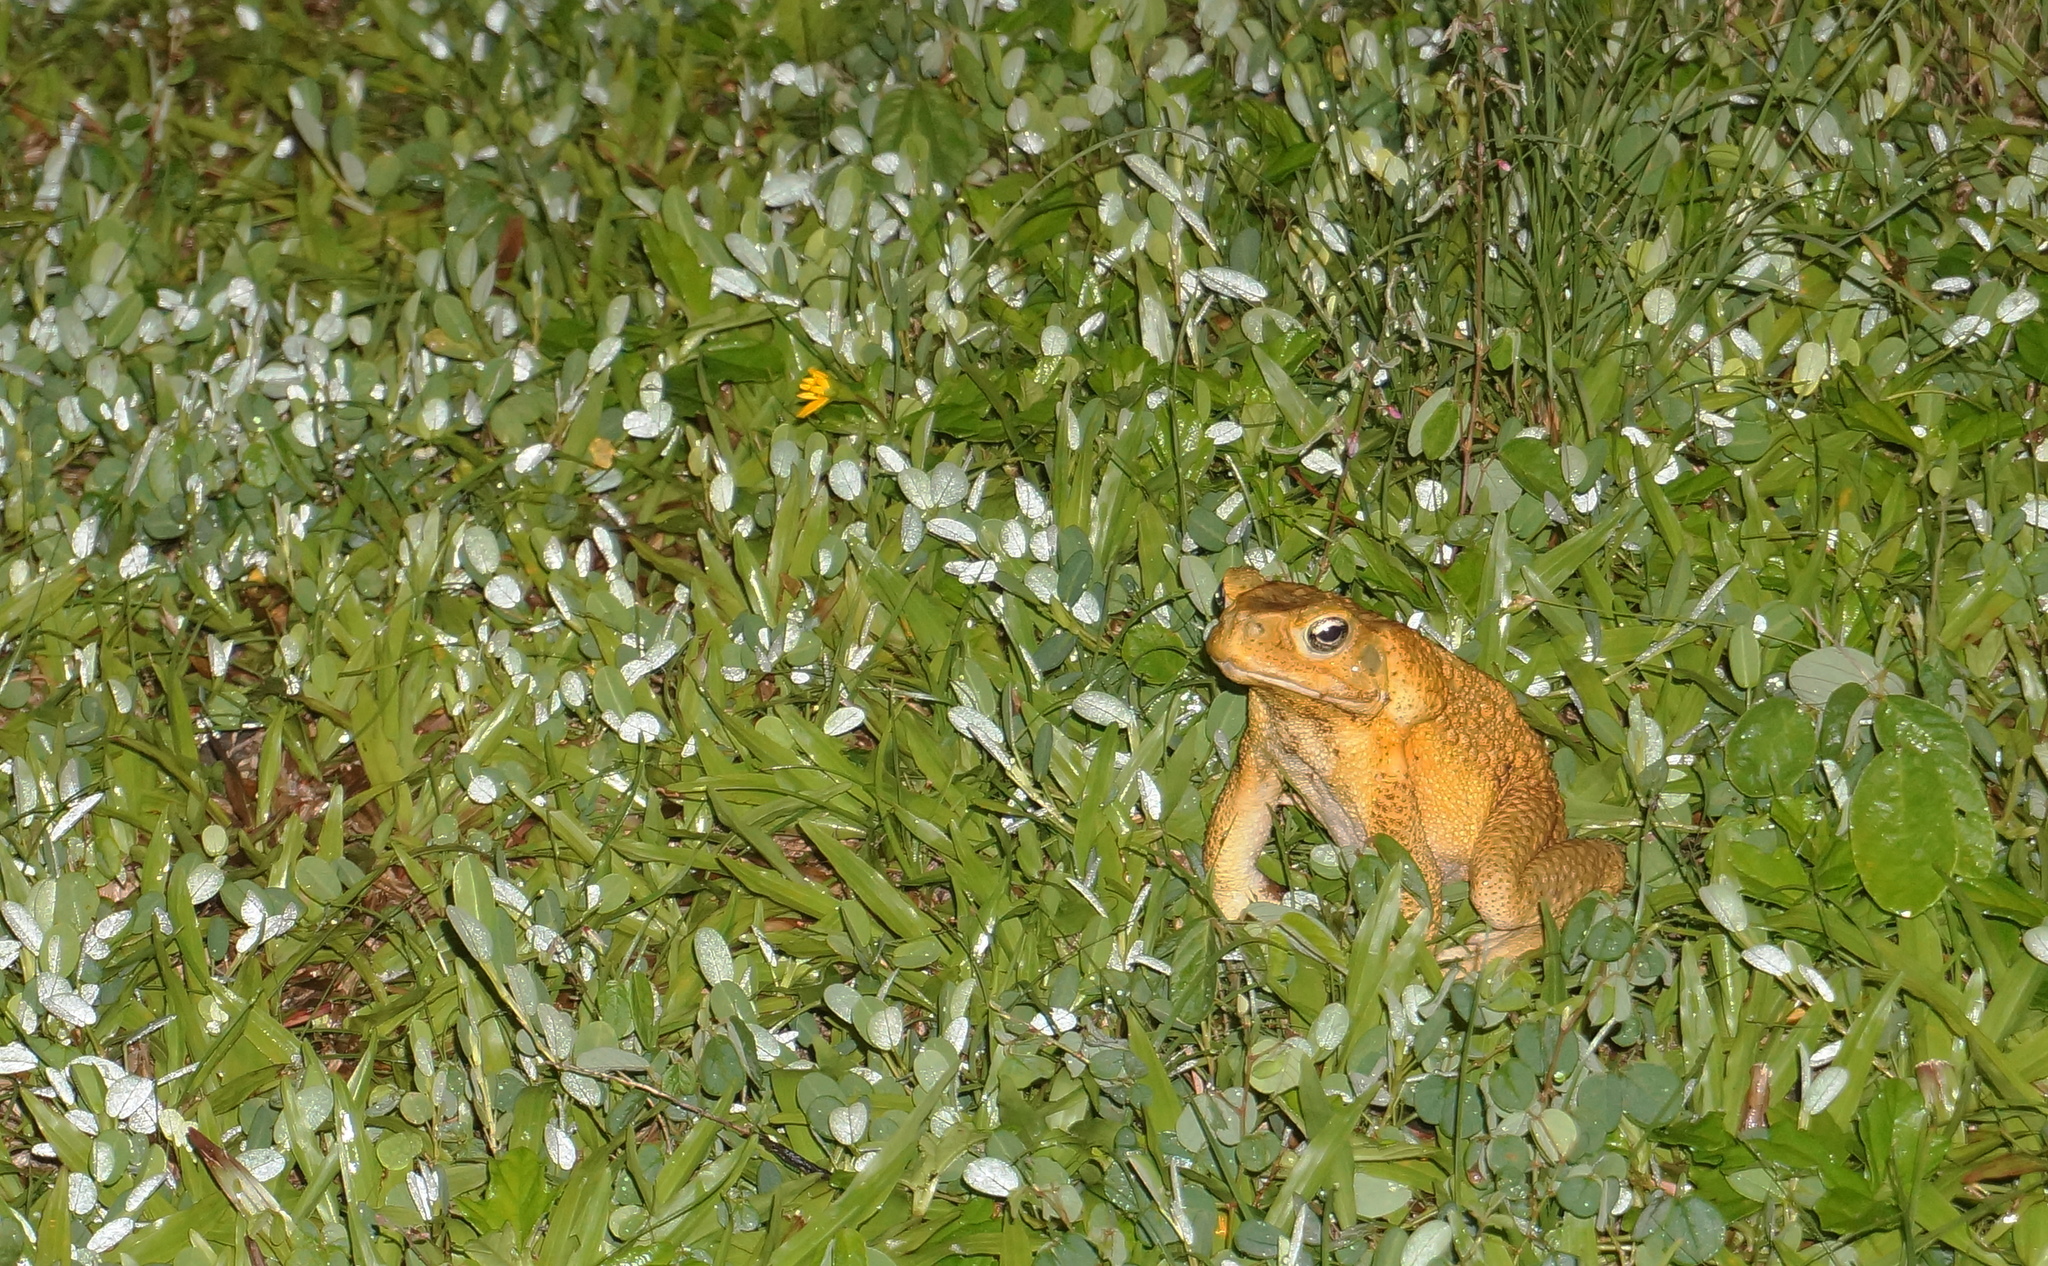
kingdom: Animalia
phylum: Chordata
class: Amphibia
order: Anura
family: Bufonidae
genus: Rhinella
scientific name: Rhinella marina
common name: Cane toad
